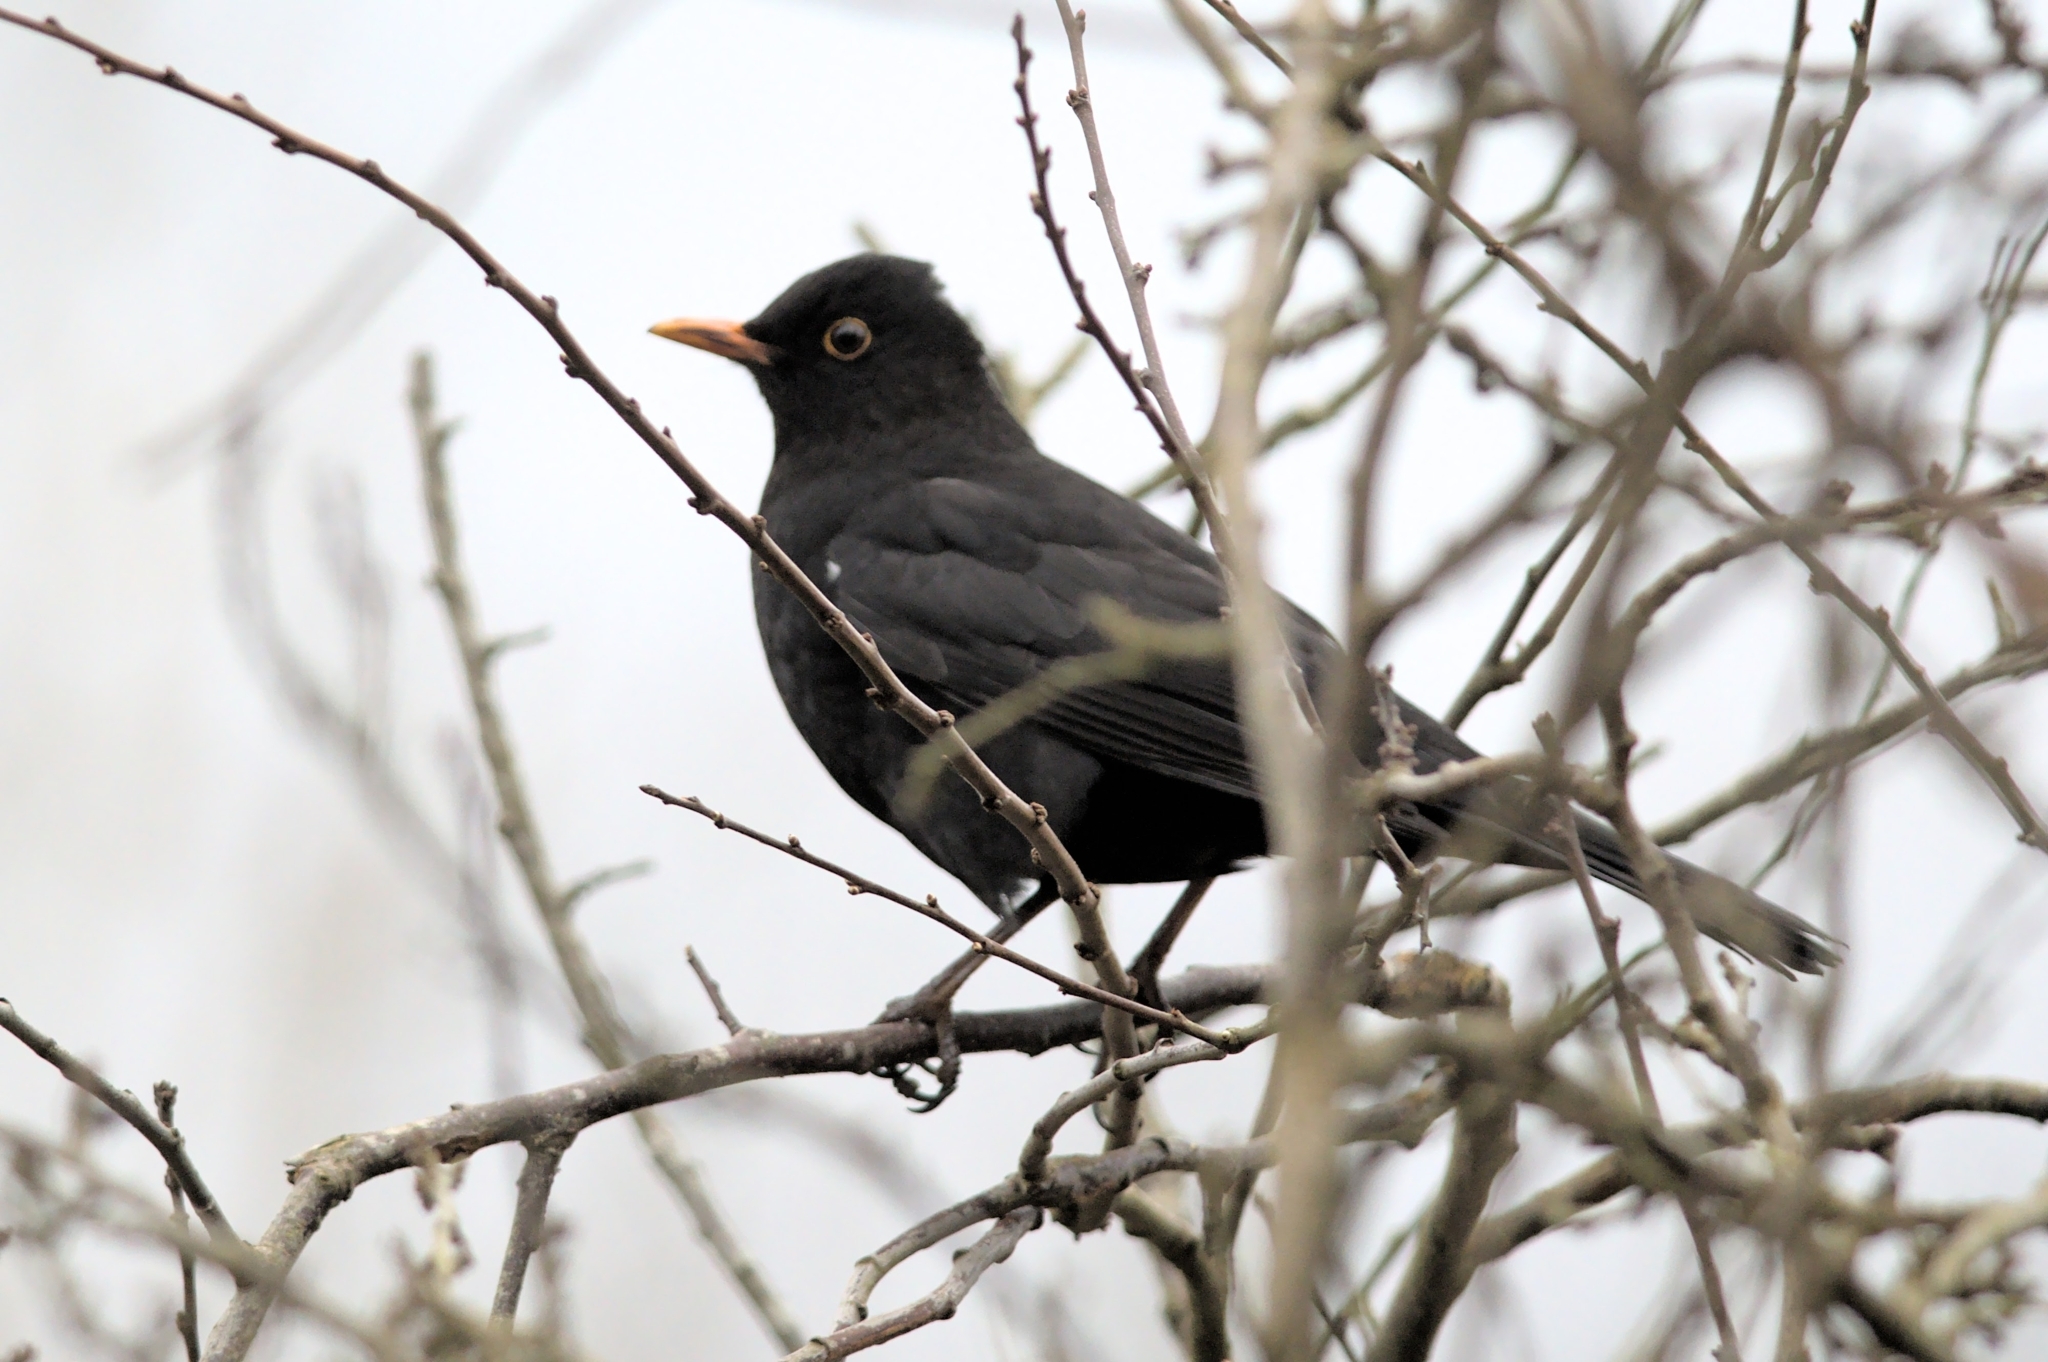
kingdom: Animalia
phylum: Chordata
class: Aves
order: Passeriformes
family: Turdidae
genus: Turdus
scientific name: Turdus merula
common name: Common blackbird
